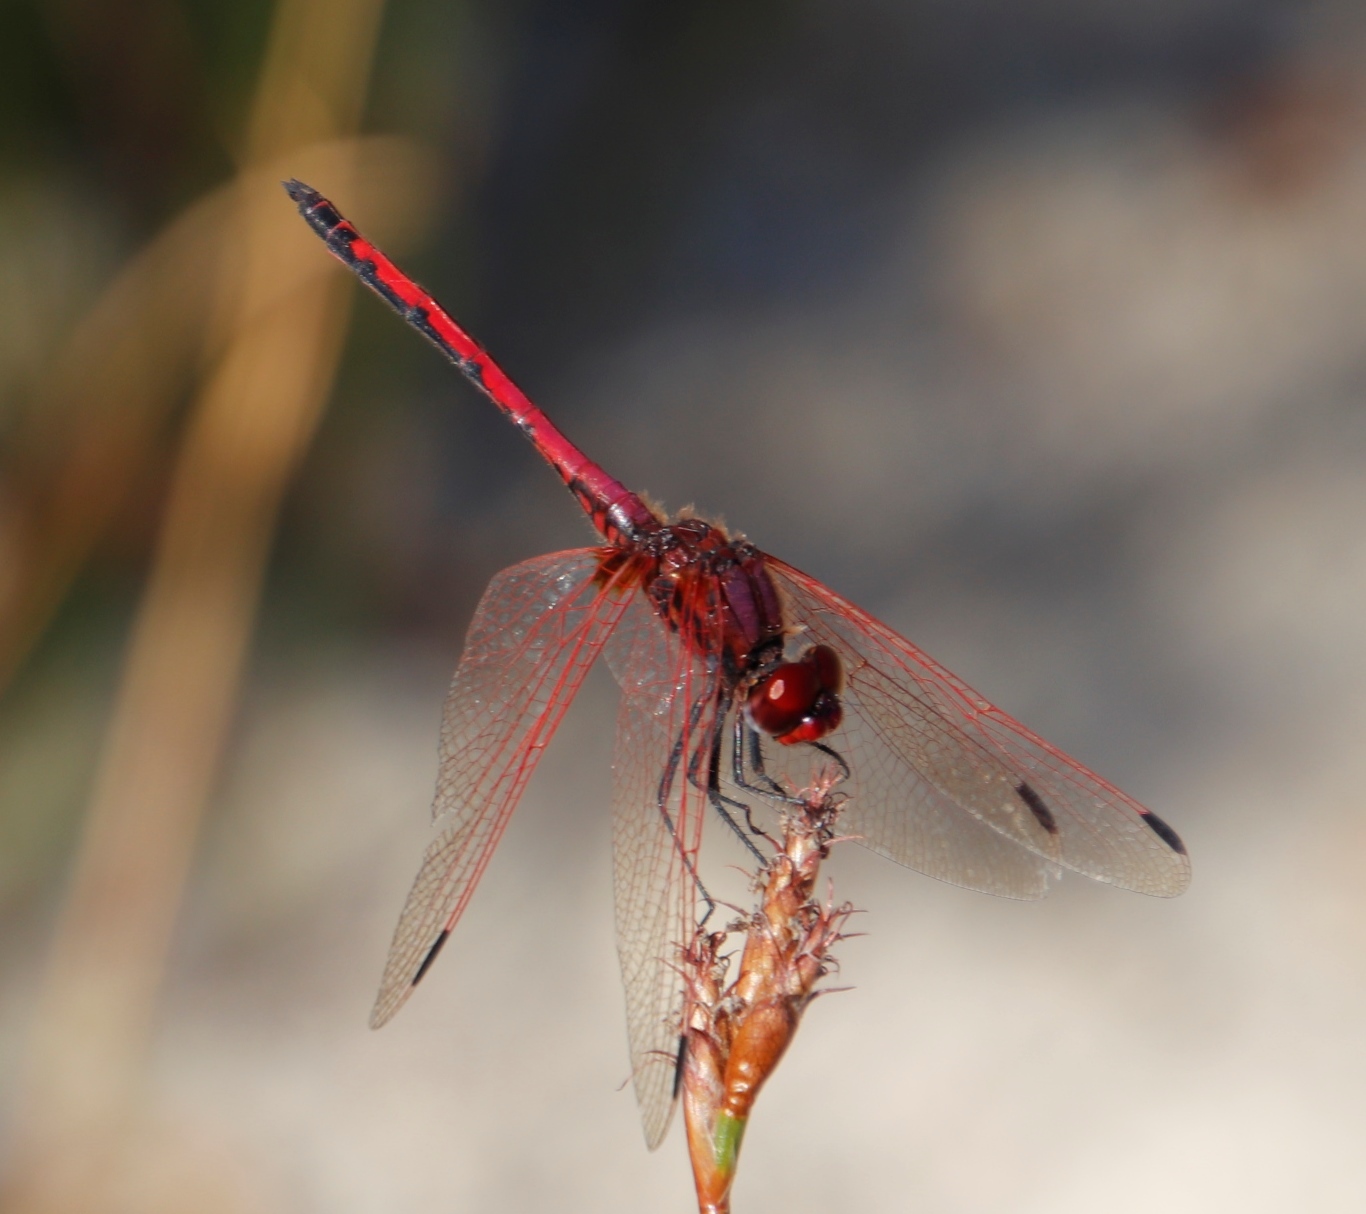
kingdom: Animalia
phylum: Arthropoda
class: Insecta
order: Odonata
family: Libellulidae
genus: Trithemis
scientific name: Trithemis arteriosa
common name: Red-veined dropwing
